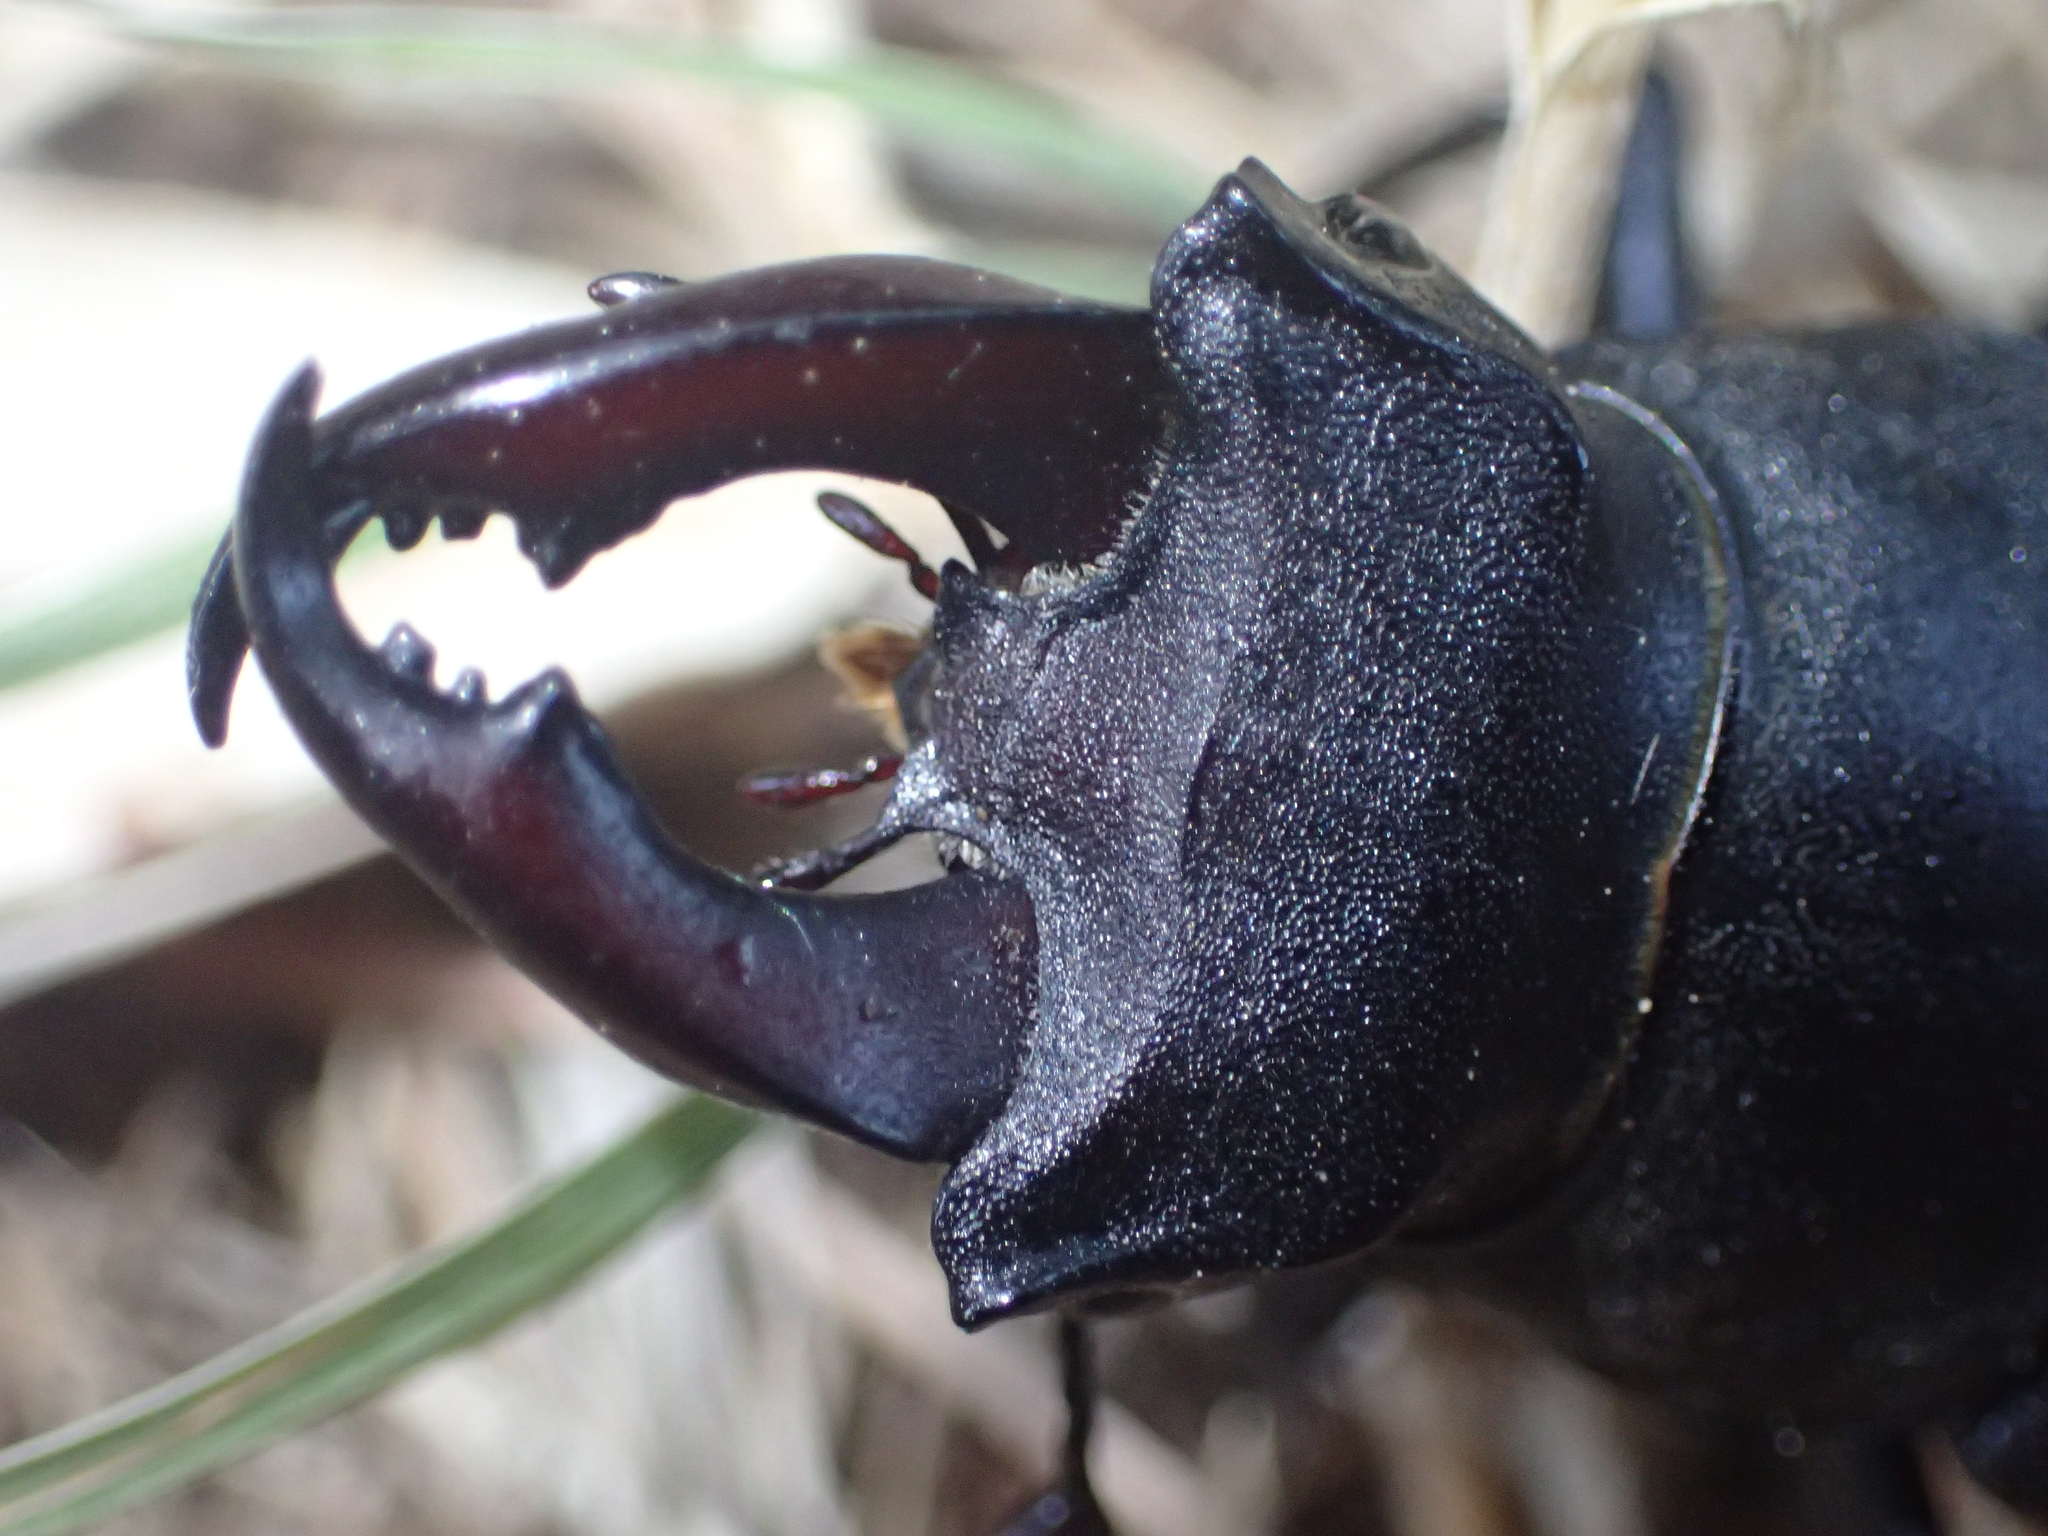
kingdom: Animalia
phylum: Arthropoda
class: Insecta
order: Coleoptera
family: Lucanidae
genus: Lucanus
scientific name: Lucanus cervus
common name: Stag beetle
